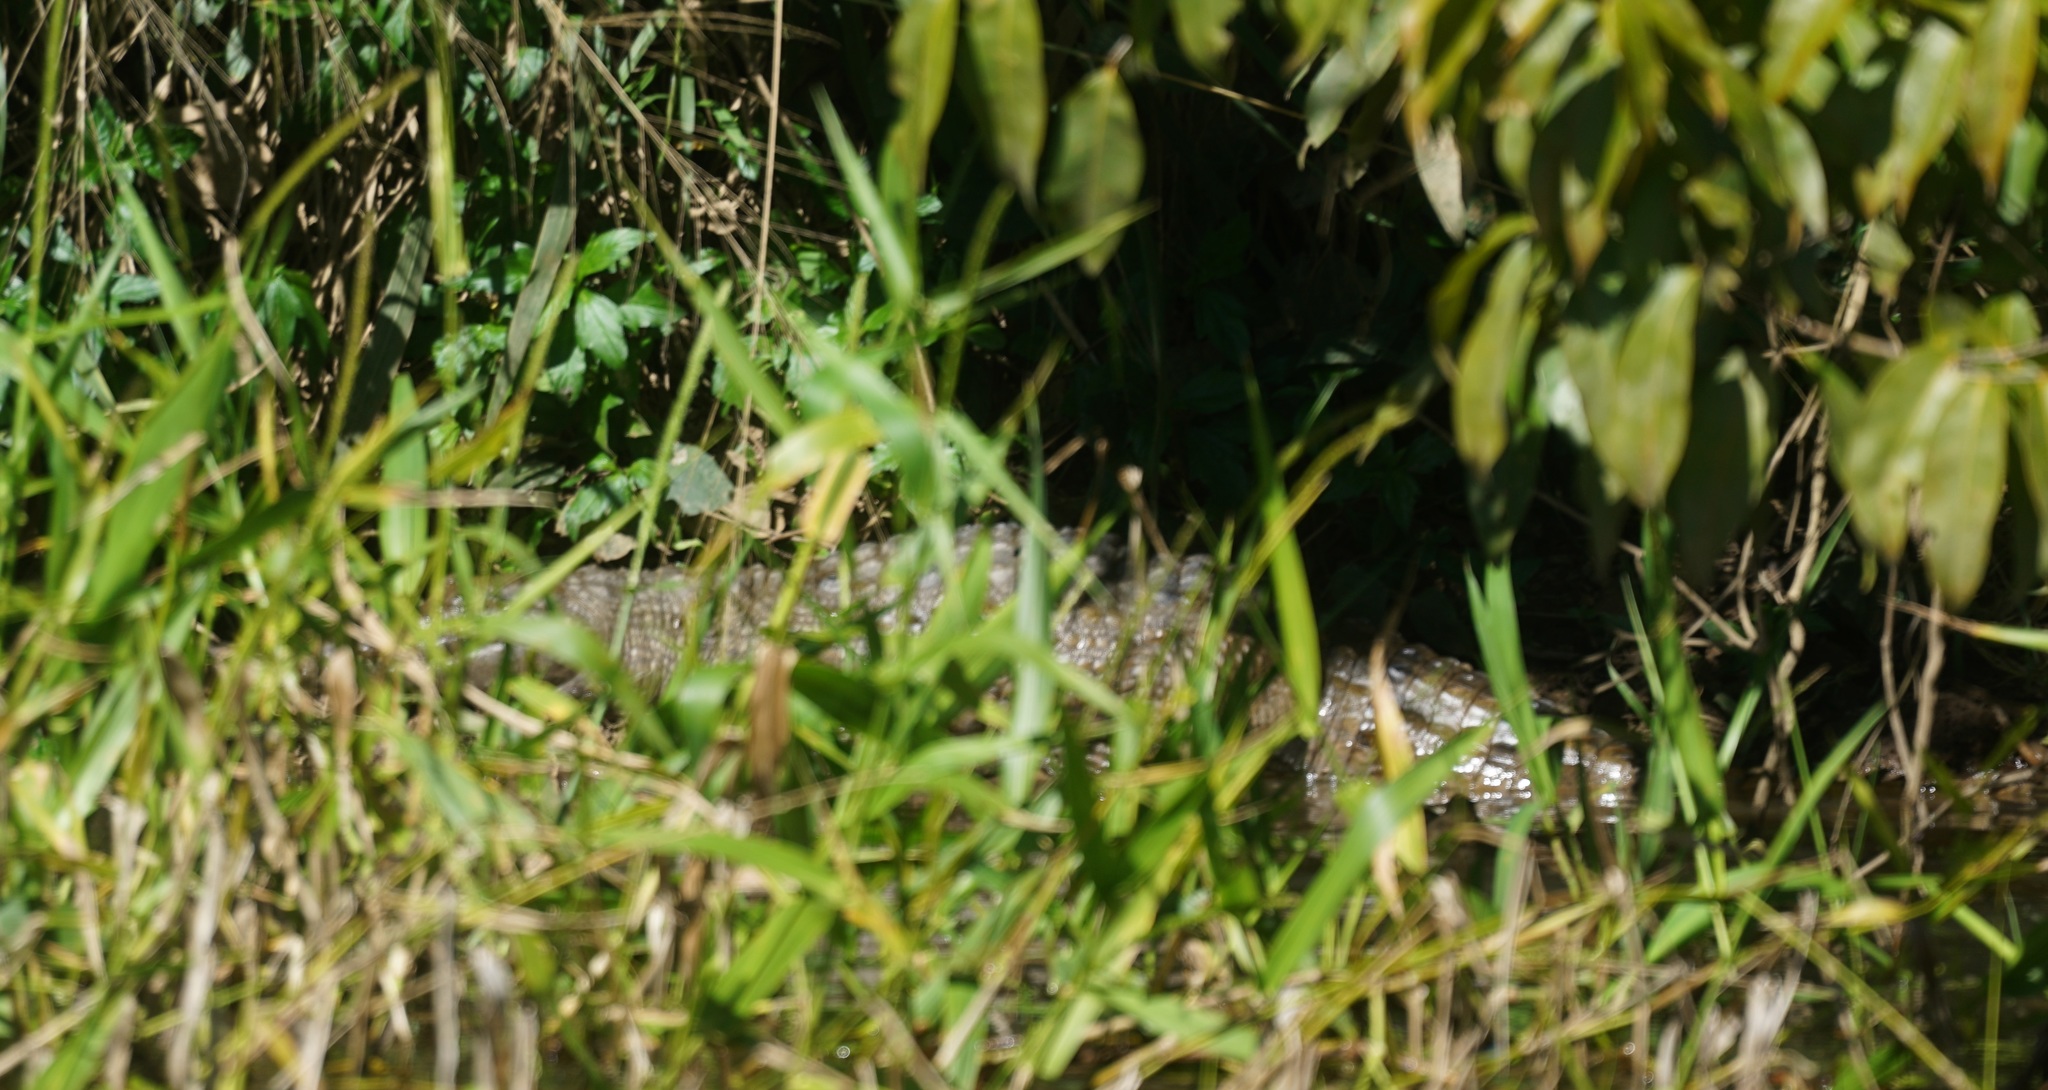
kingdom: Animalia
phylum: Chordata
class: Crocodylia
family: Crocodylidae
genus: Crocodylus
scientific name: Crocodylus johnsoni
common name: Freshwater crocodile
